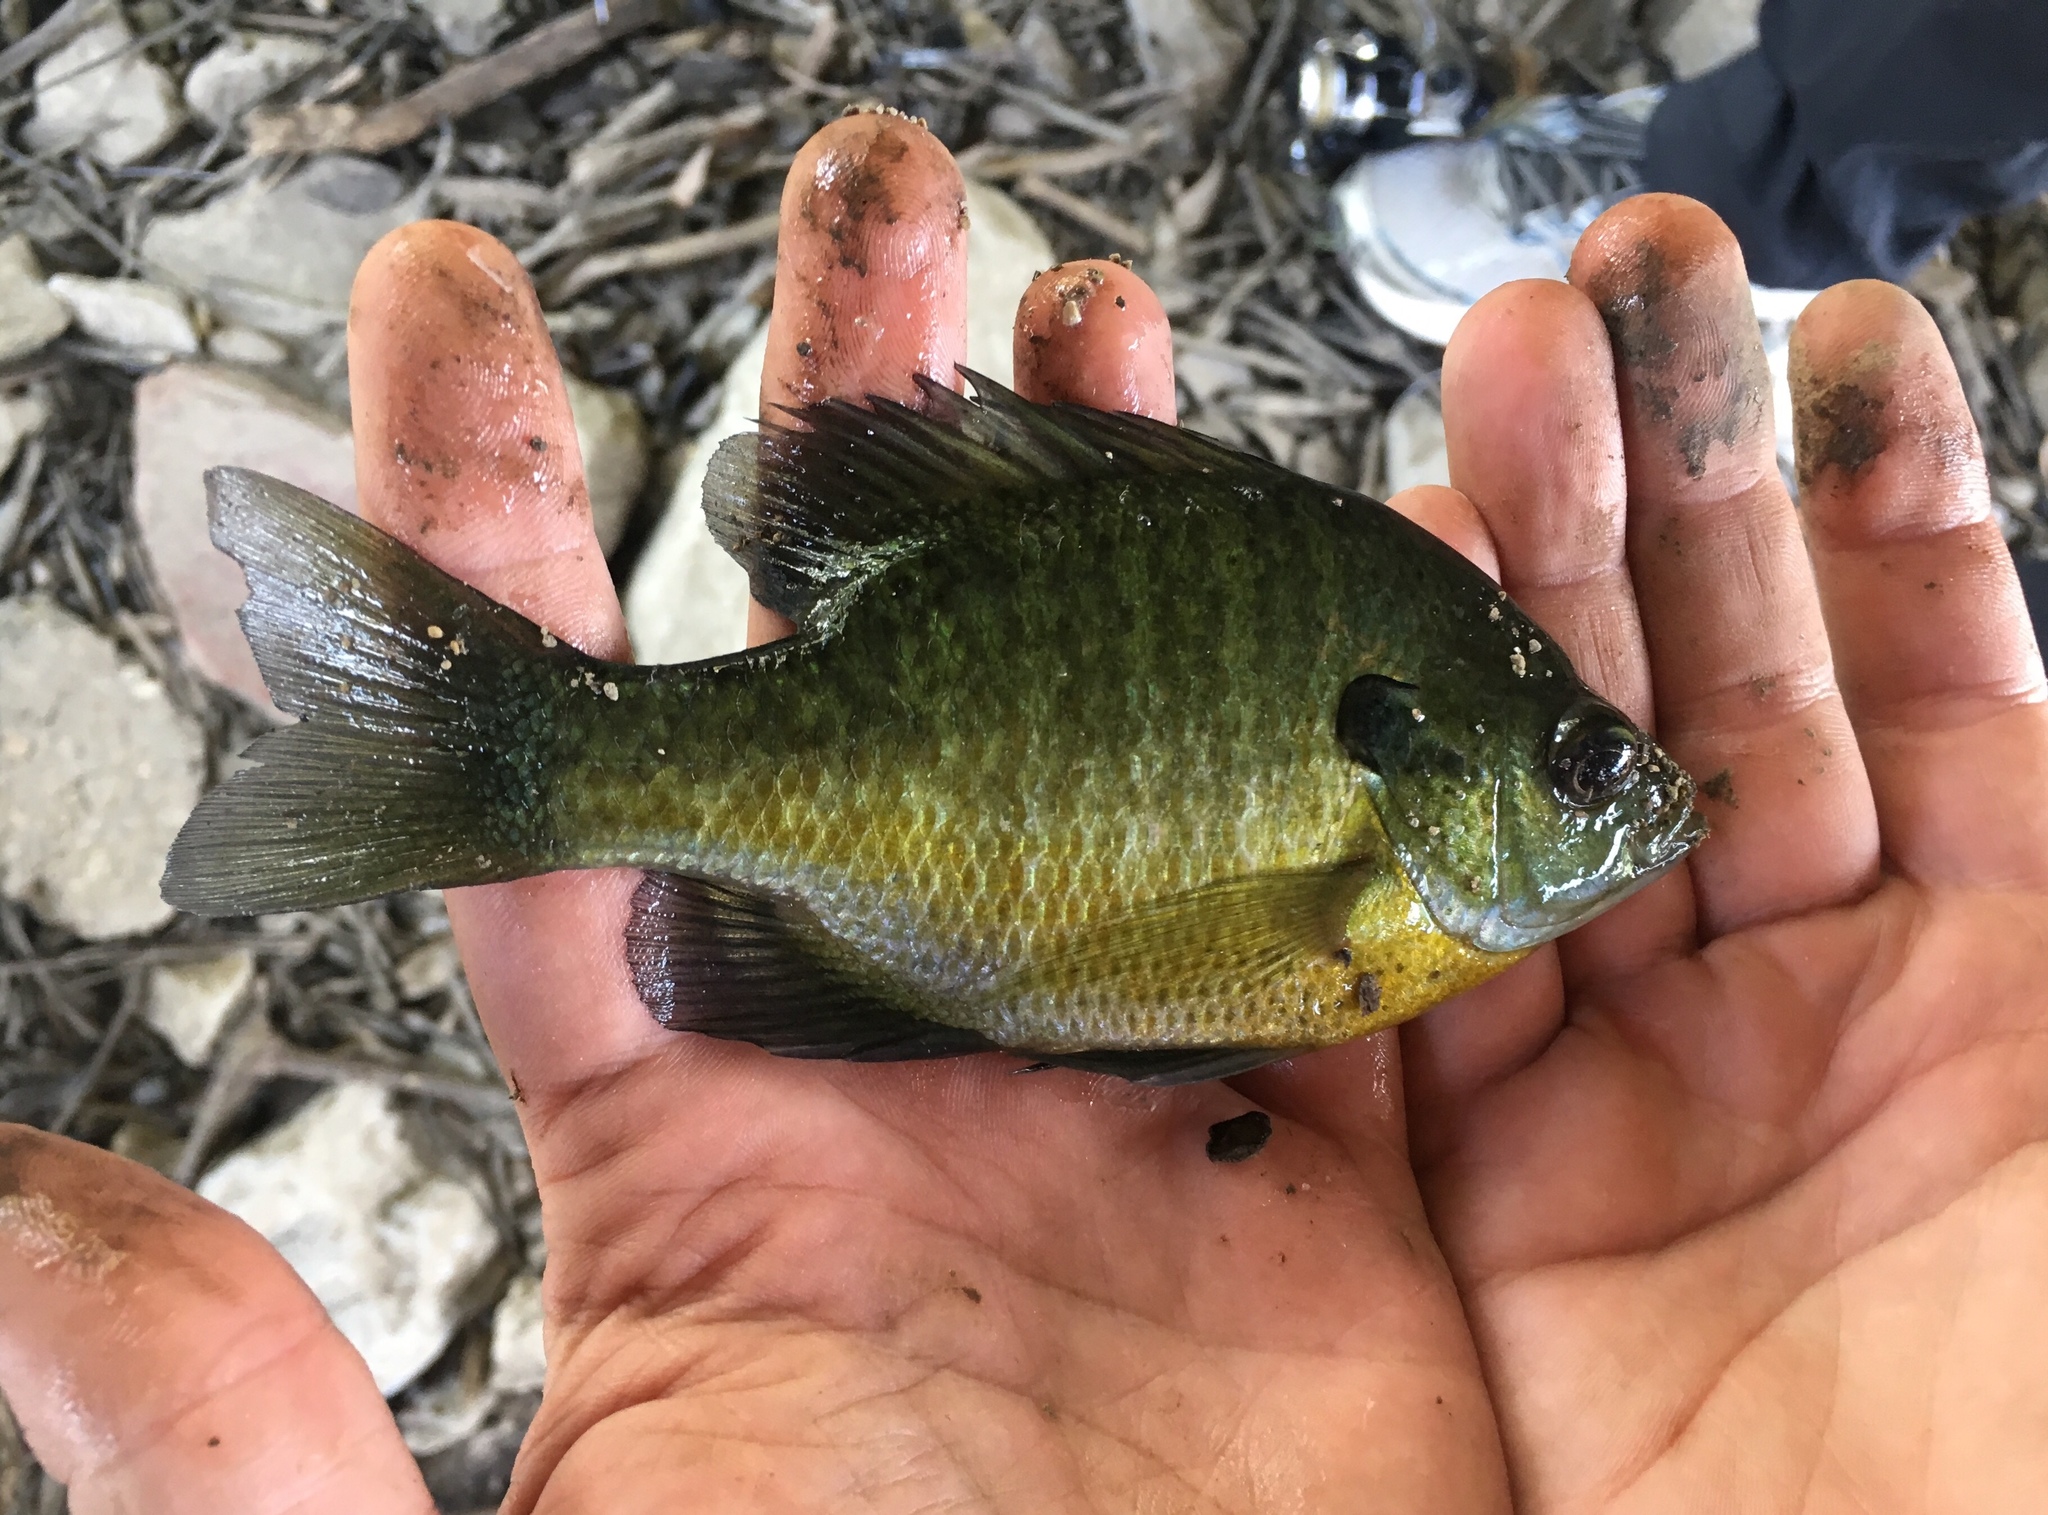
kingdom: Animalia
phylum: Chordata
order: Perciformes
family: Centrarchidae
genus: Lepomis
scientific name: Lepomis macrochirus
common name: Bluegill
